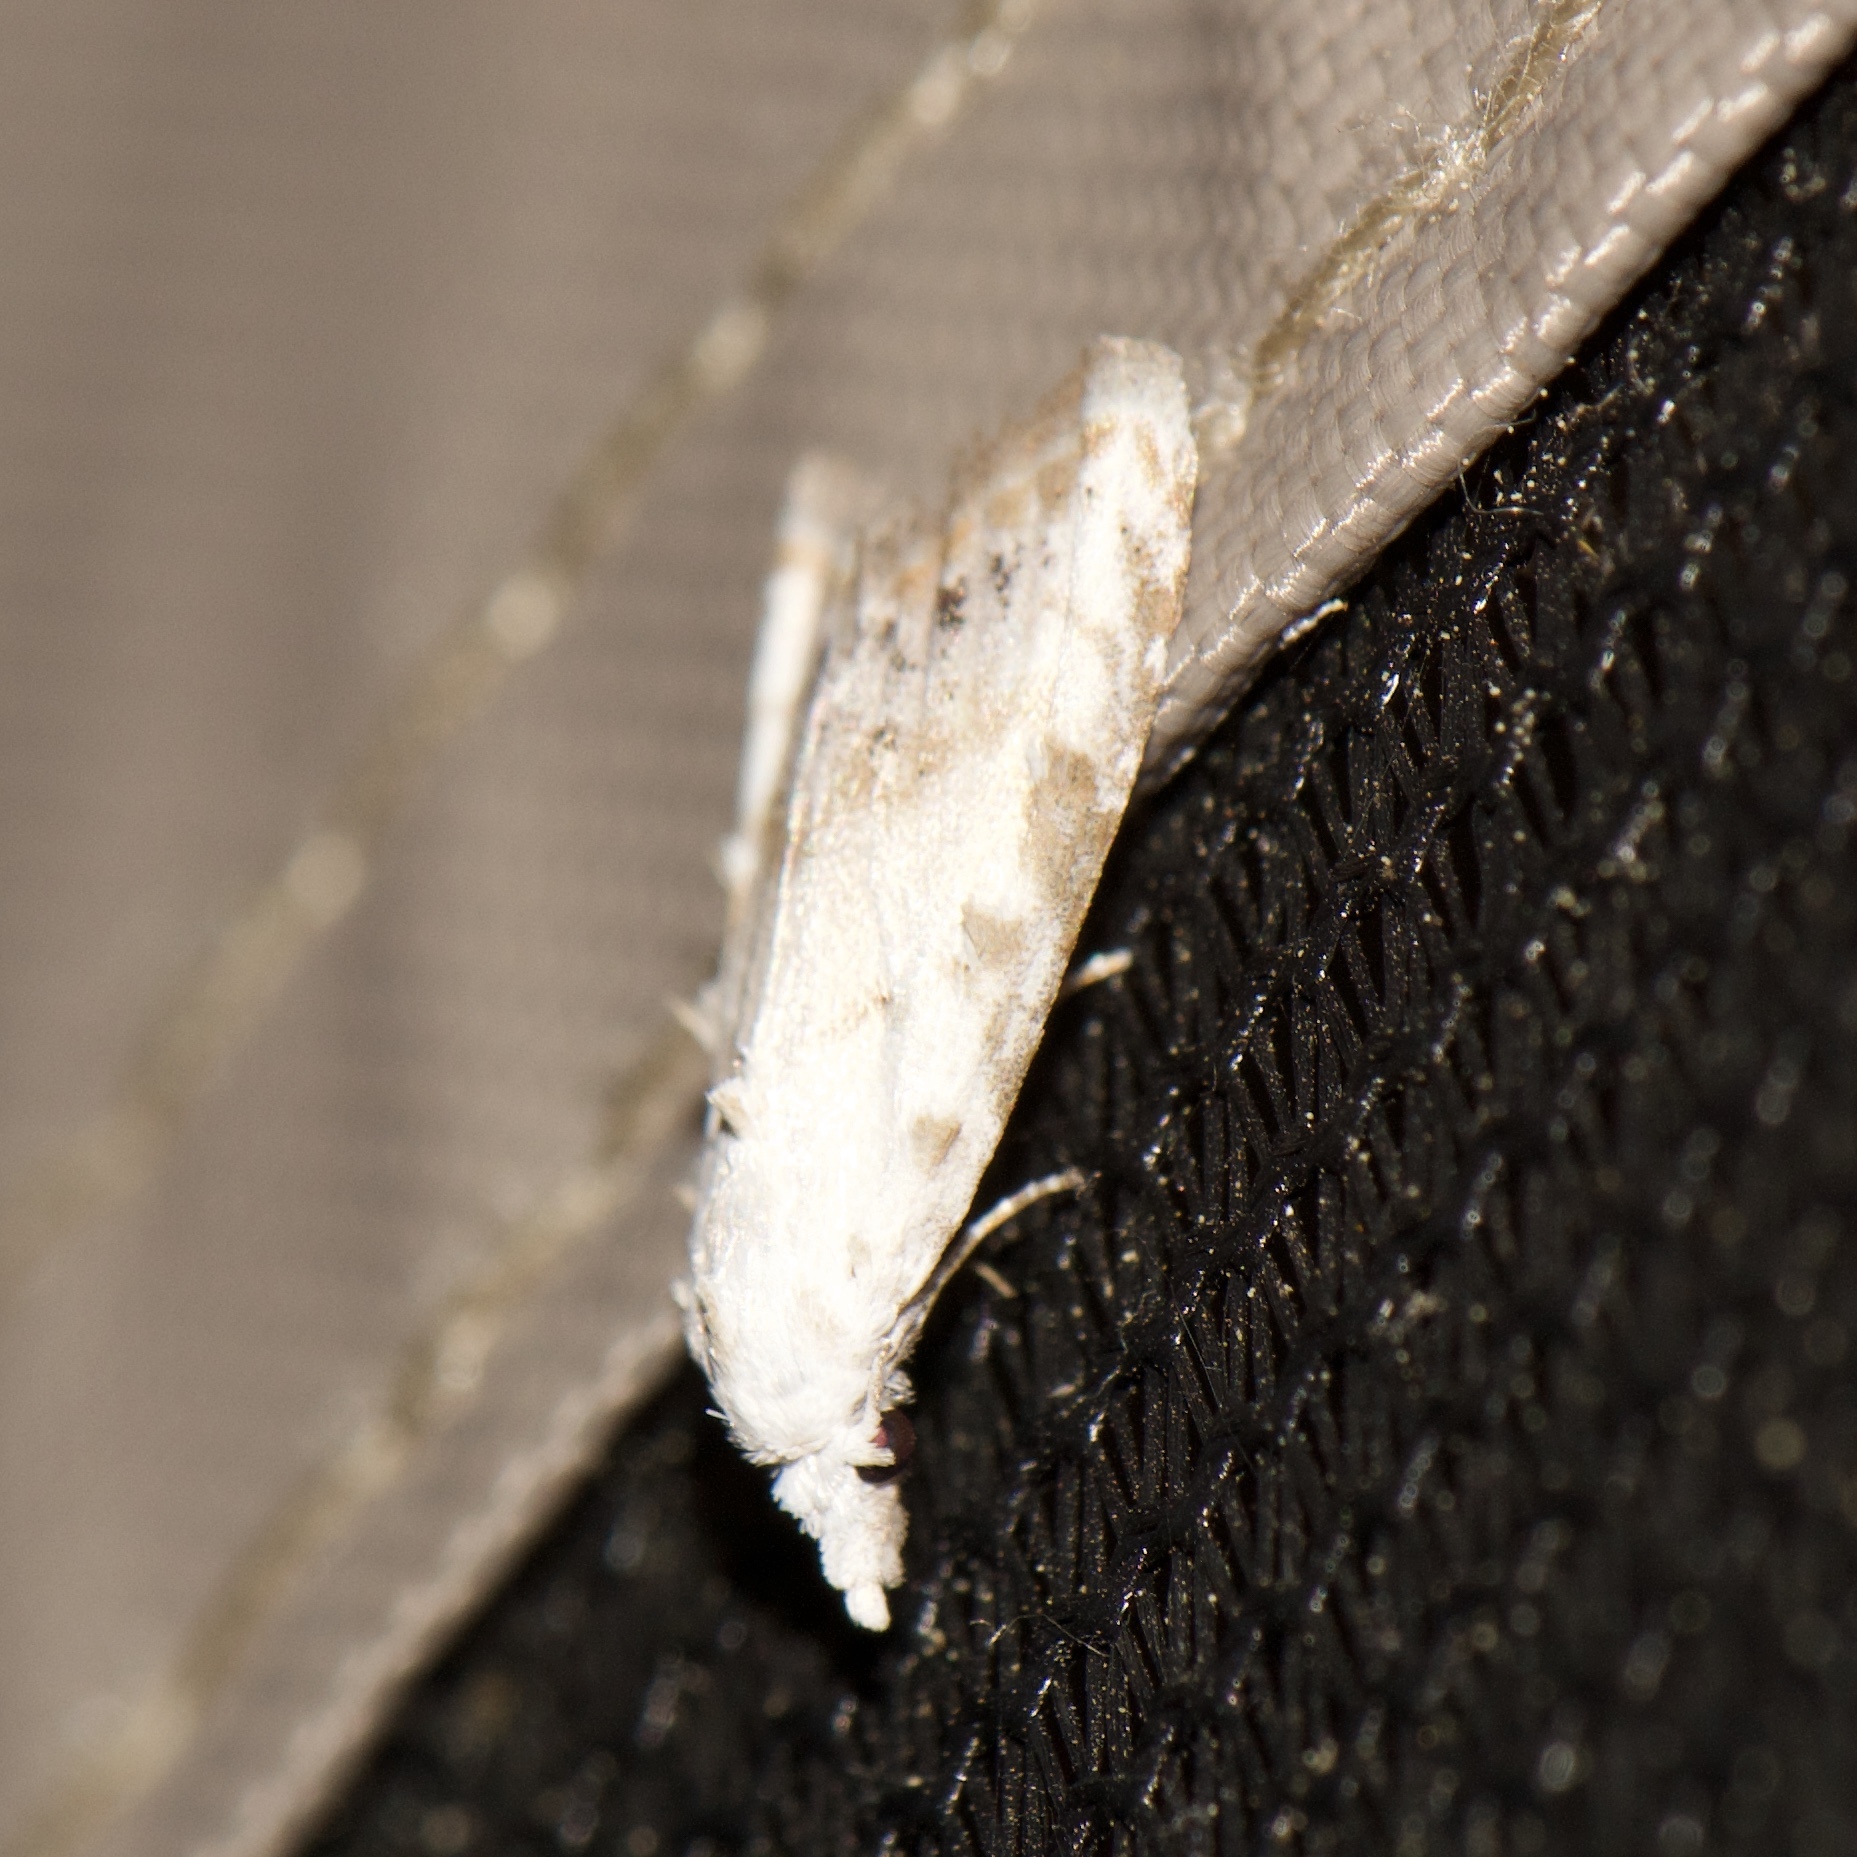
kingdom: Animalia
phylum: Arthropoda
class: Insecta
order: Lepidoptera
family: Nolidae
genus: Nola
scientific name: Nola cereella
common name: Sorghum webworm moth
